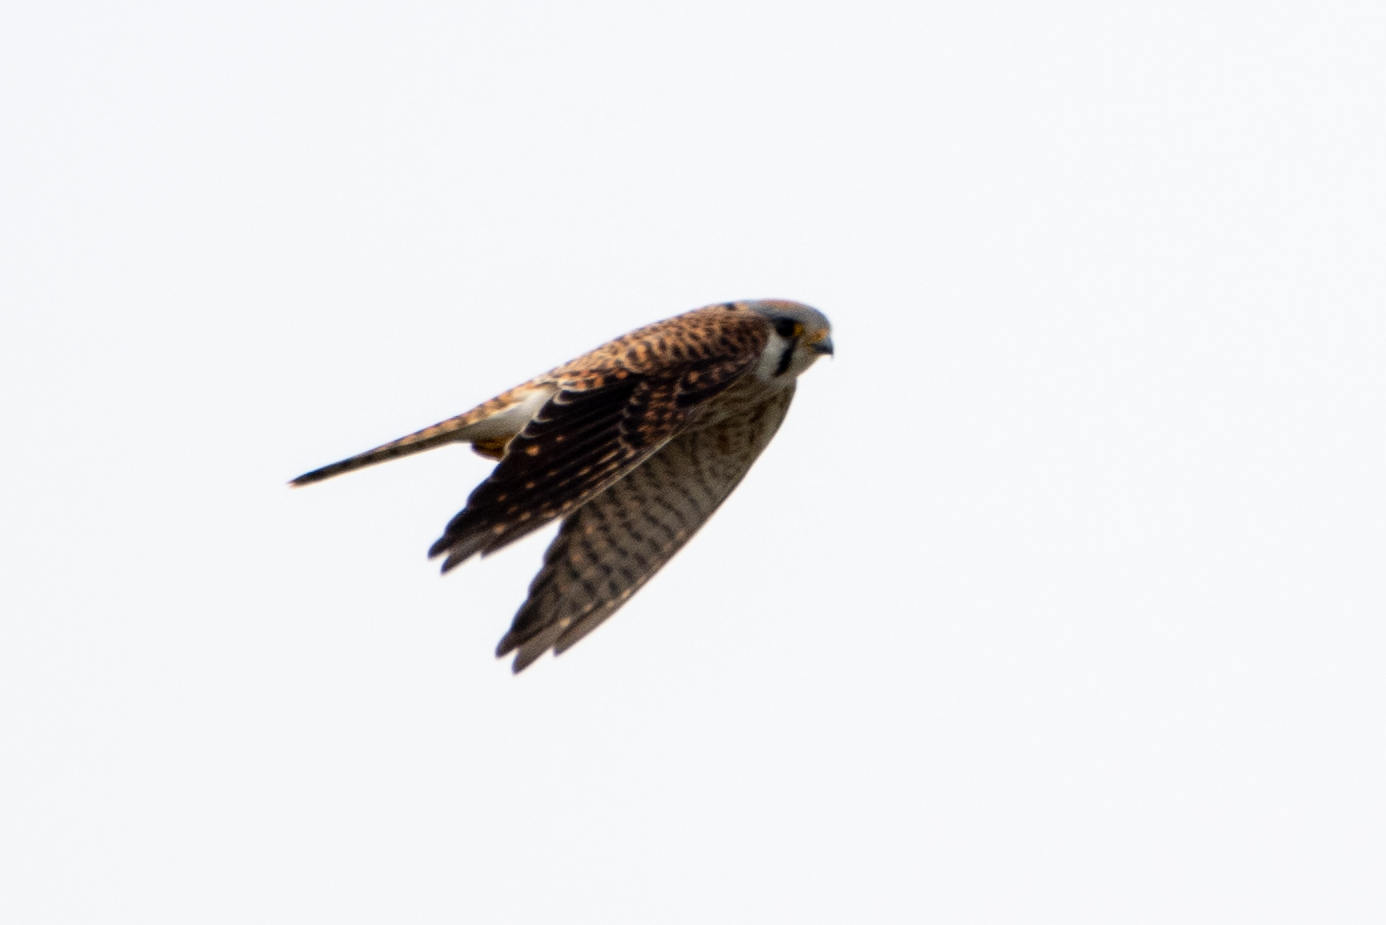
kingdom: Animalia
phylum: Chordata
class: Aves
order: Falconiformes
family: Falconidae
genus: Falco
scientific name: Falco sparverius
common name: American kestrel
